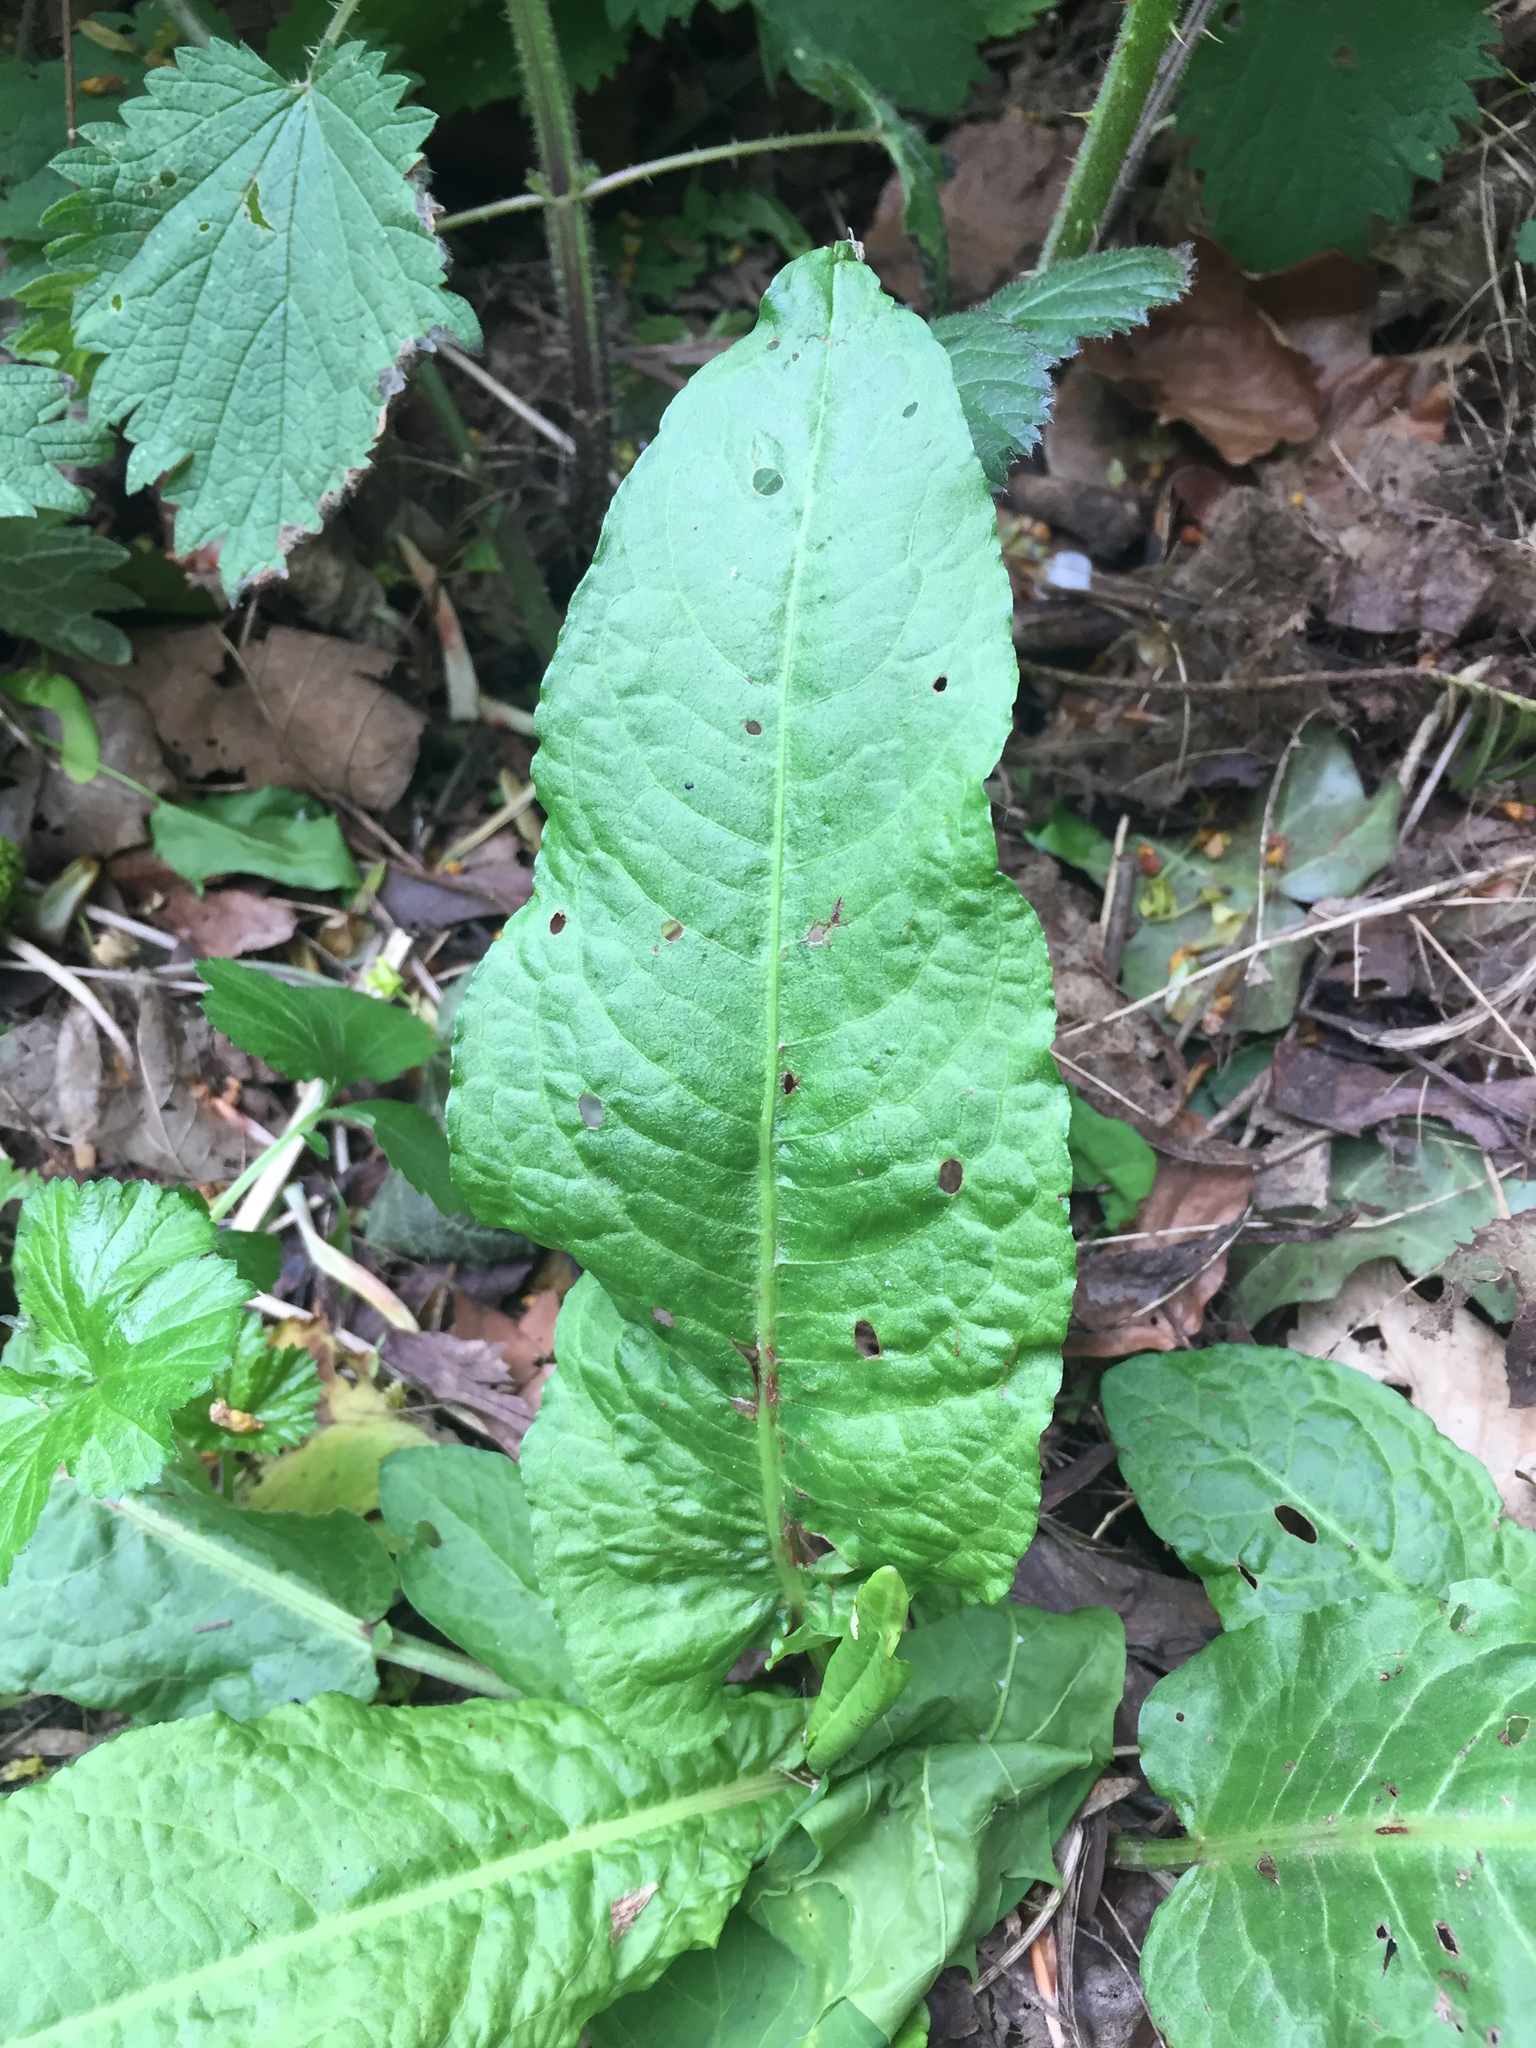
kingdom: Plantae
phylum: Tracheophyta
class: Magnoliopsida
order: Caryophyllales
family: Polygonaceae
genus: Rumex
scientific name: Rumex obtusifolius
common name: Bitter dock
